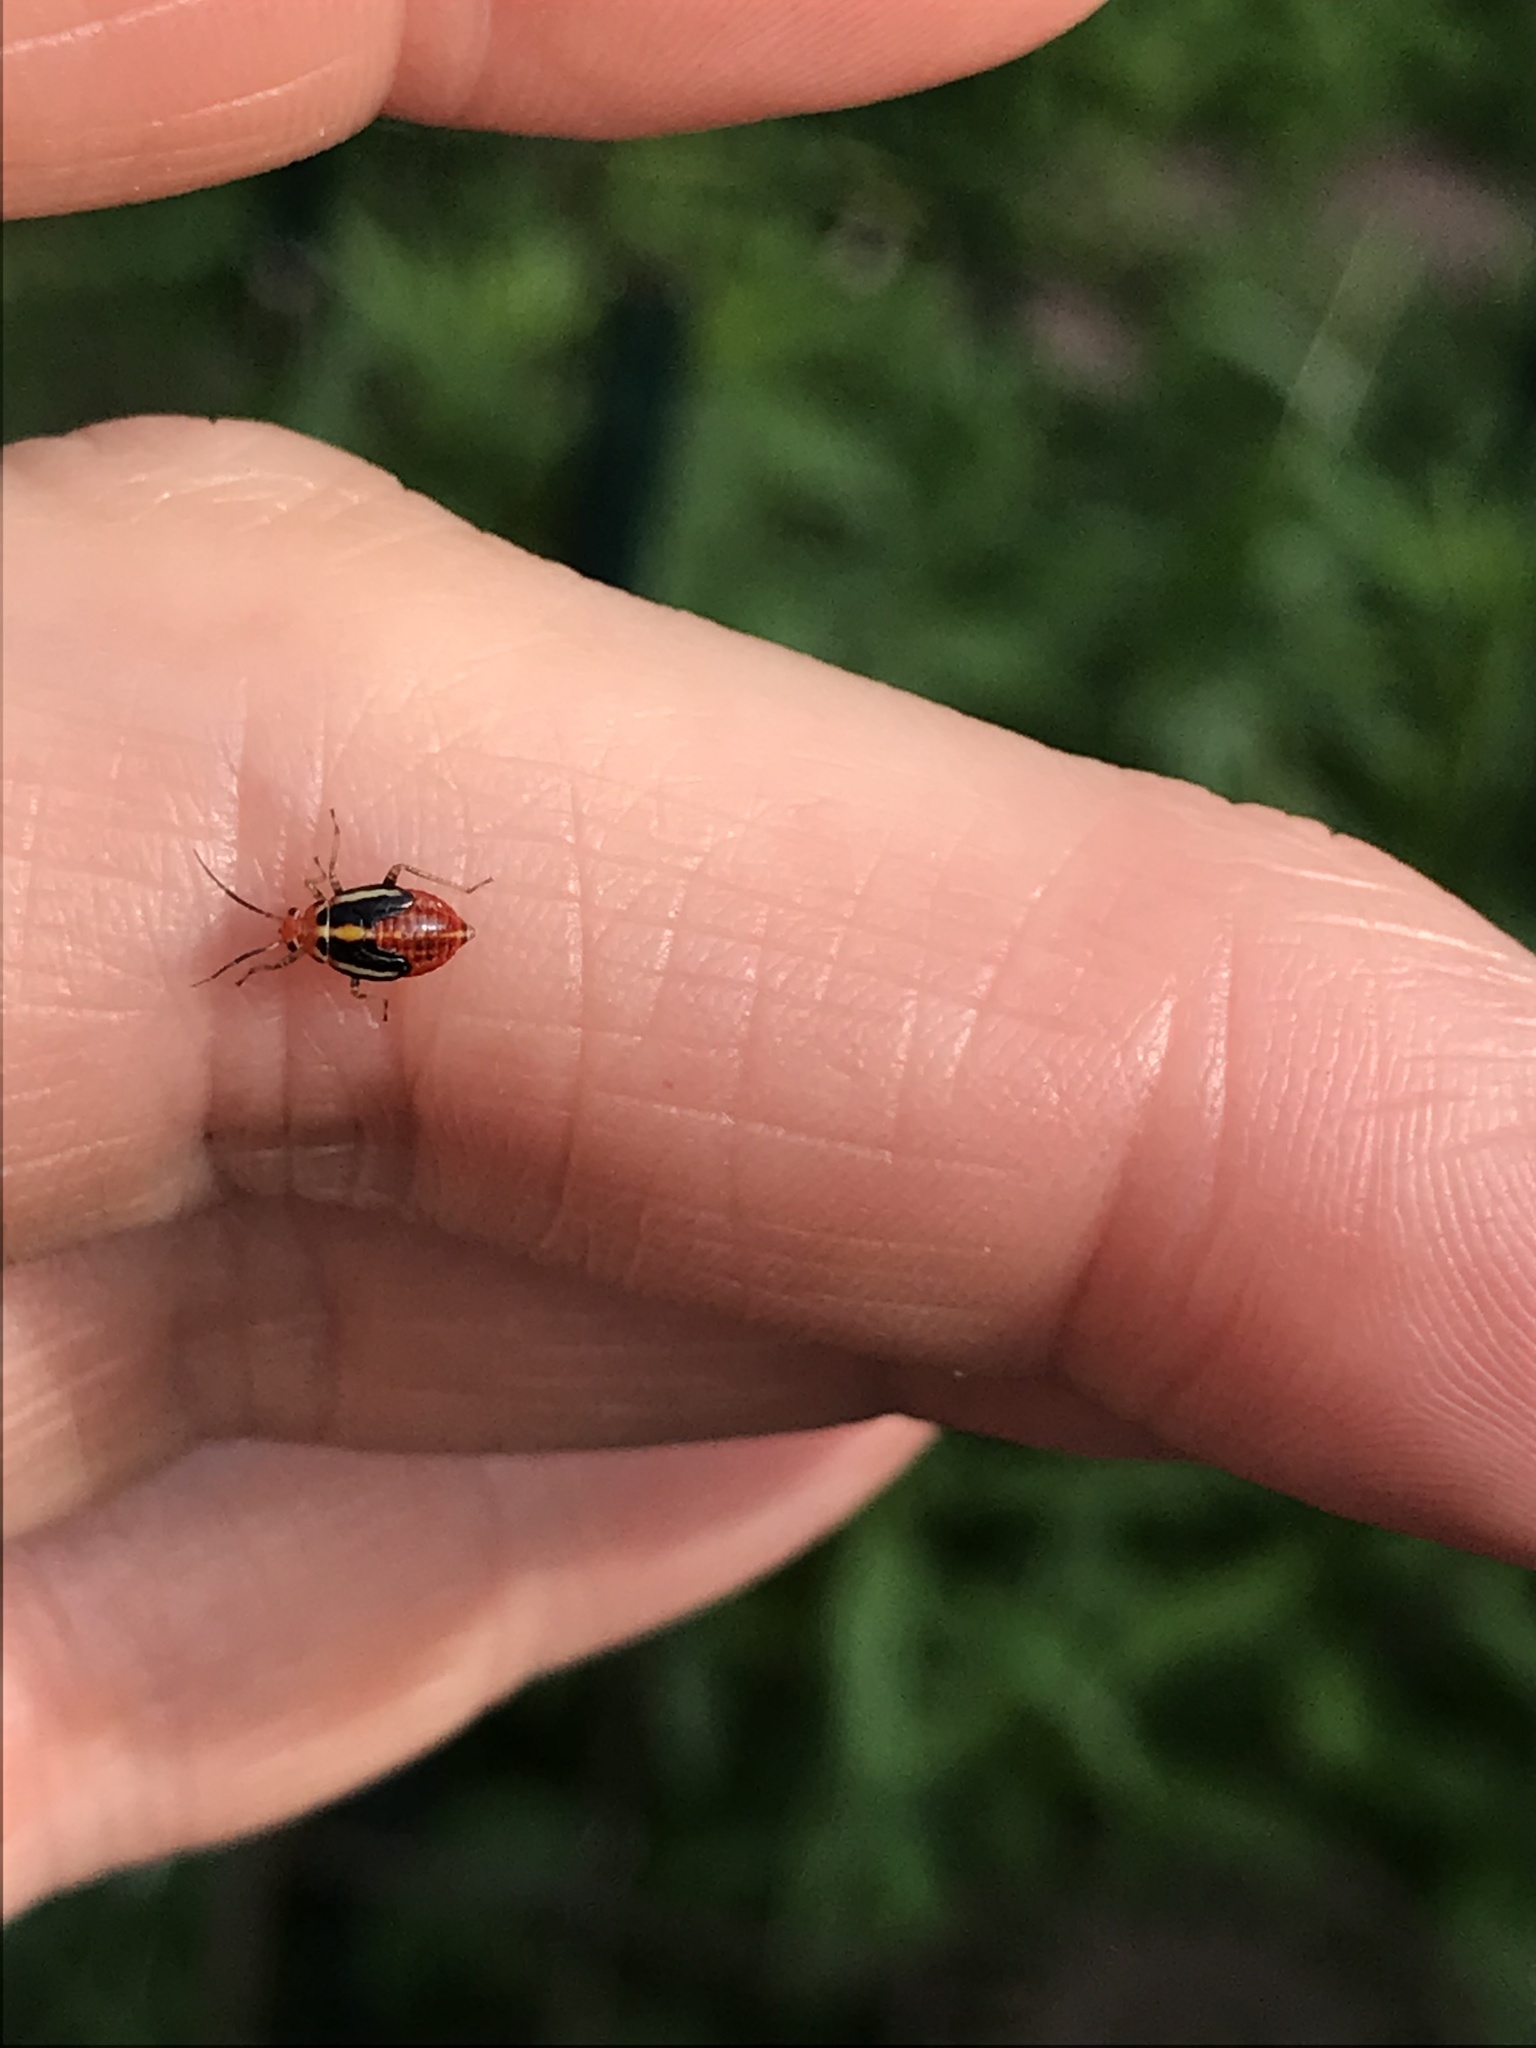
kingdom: Animalia
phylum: Arthropoda
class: Insecta
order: Hemiptera
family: Miridae
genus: Poecilocapsus
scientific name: Poecilocapsus lineatus
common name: Four-lined plant bug
